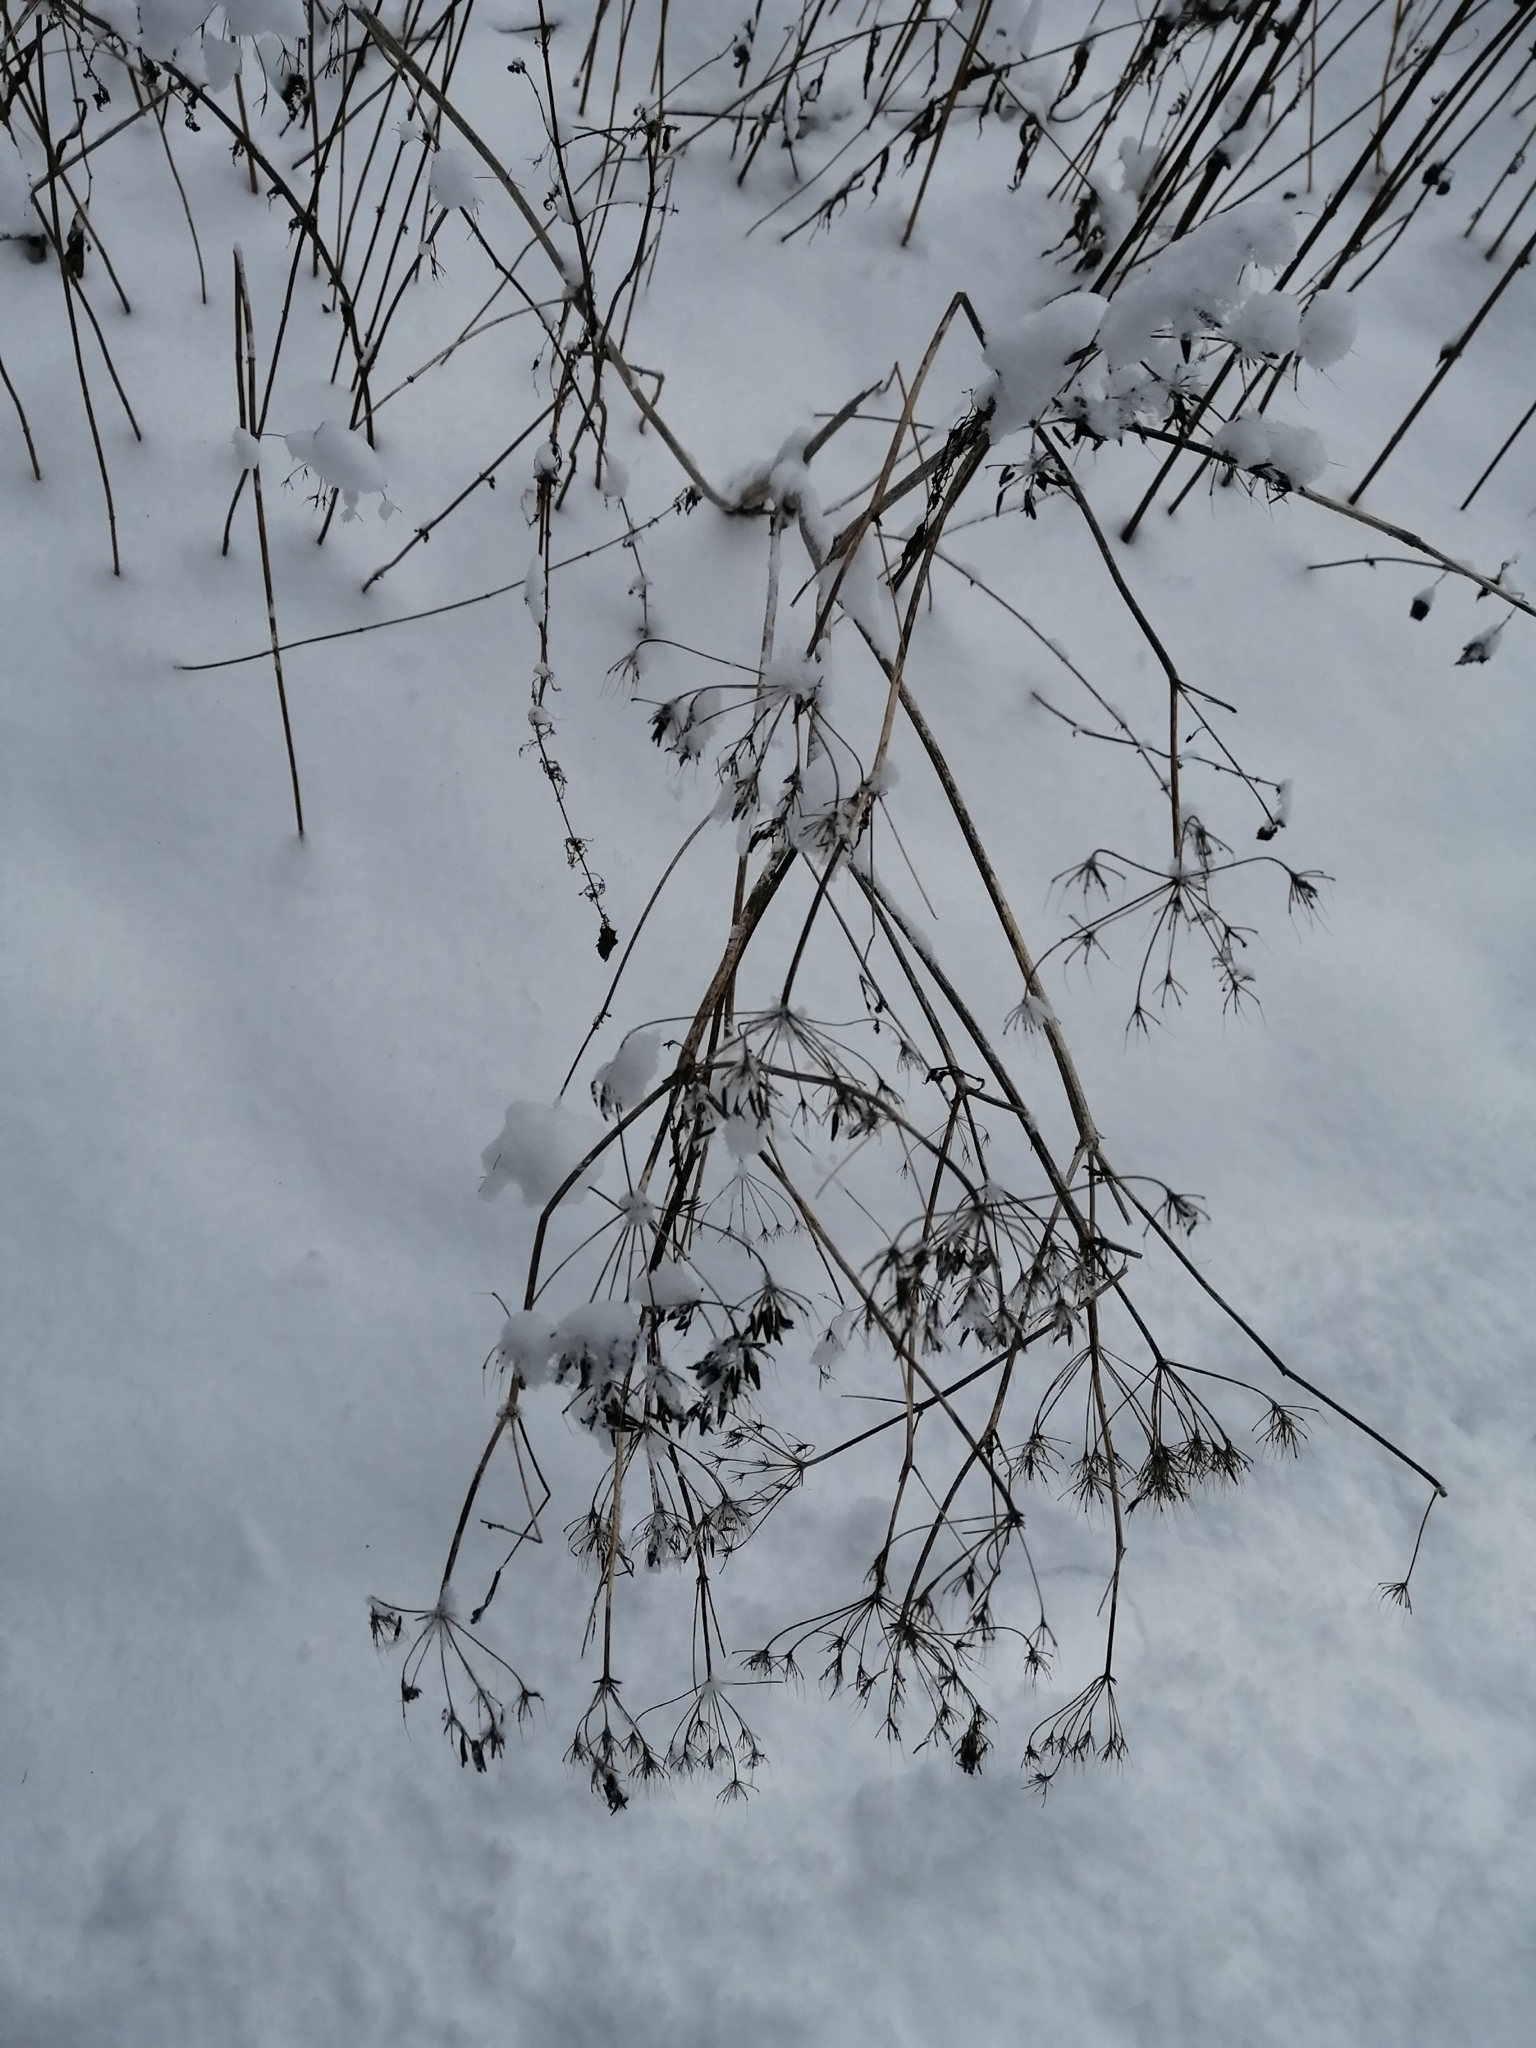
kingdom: Plantae
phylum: Tracheophyta
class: Magnoliopsida
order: Apiales
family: Apiaceae
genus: Anthriscus
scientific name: Anthriscus sylvestris
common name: Cow parsley
